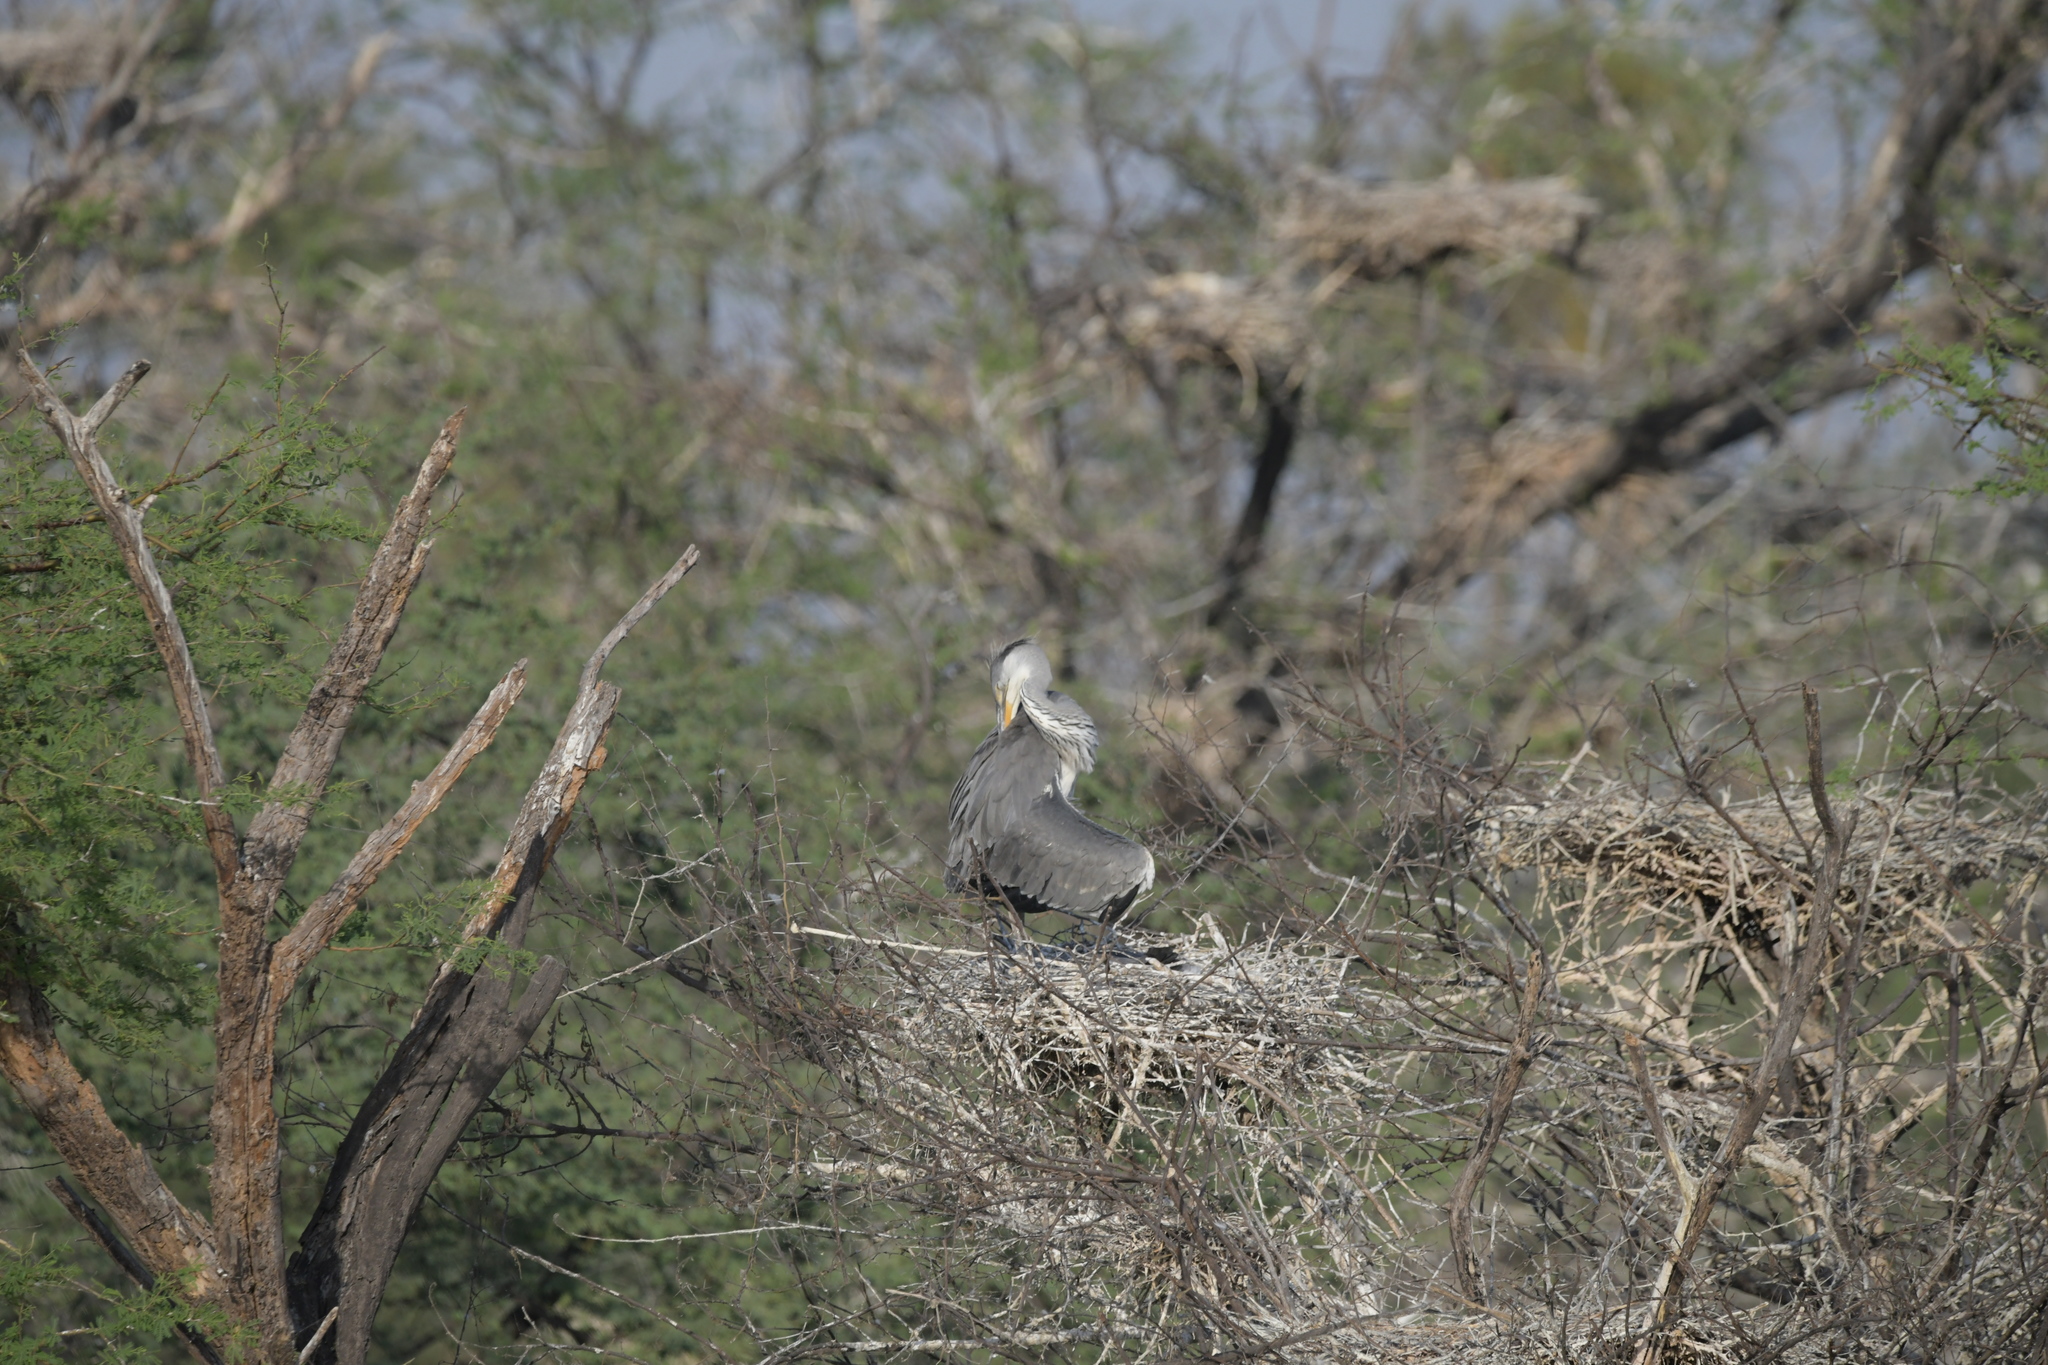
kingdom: Animalia
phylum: Chordata
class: Aves
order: Pelecaniformes
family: Ardeidae
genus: Ardea
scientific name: Ardea cinerea
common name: Grey heron
